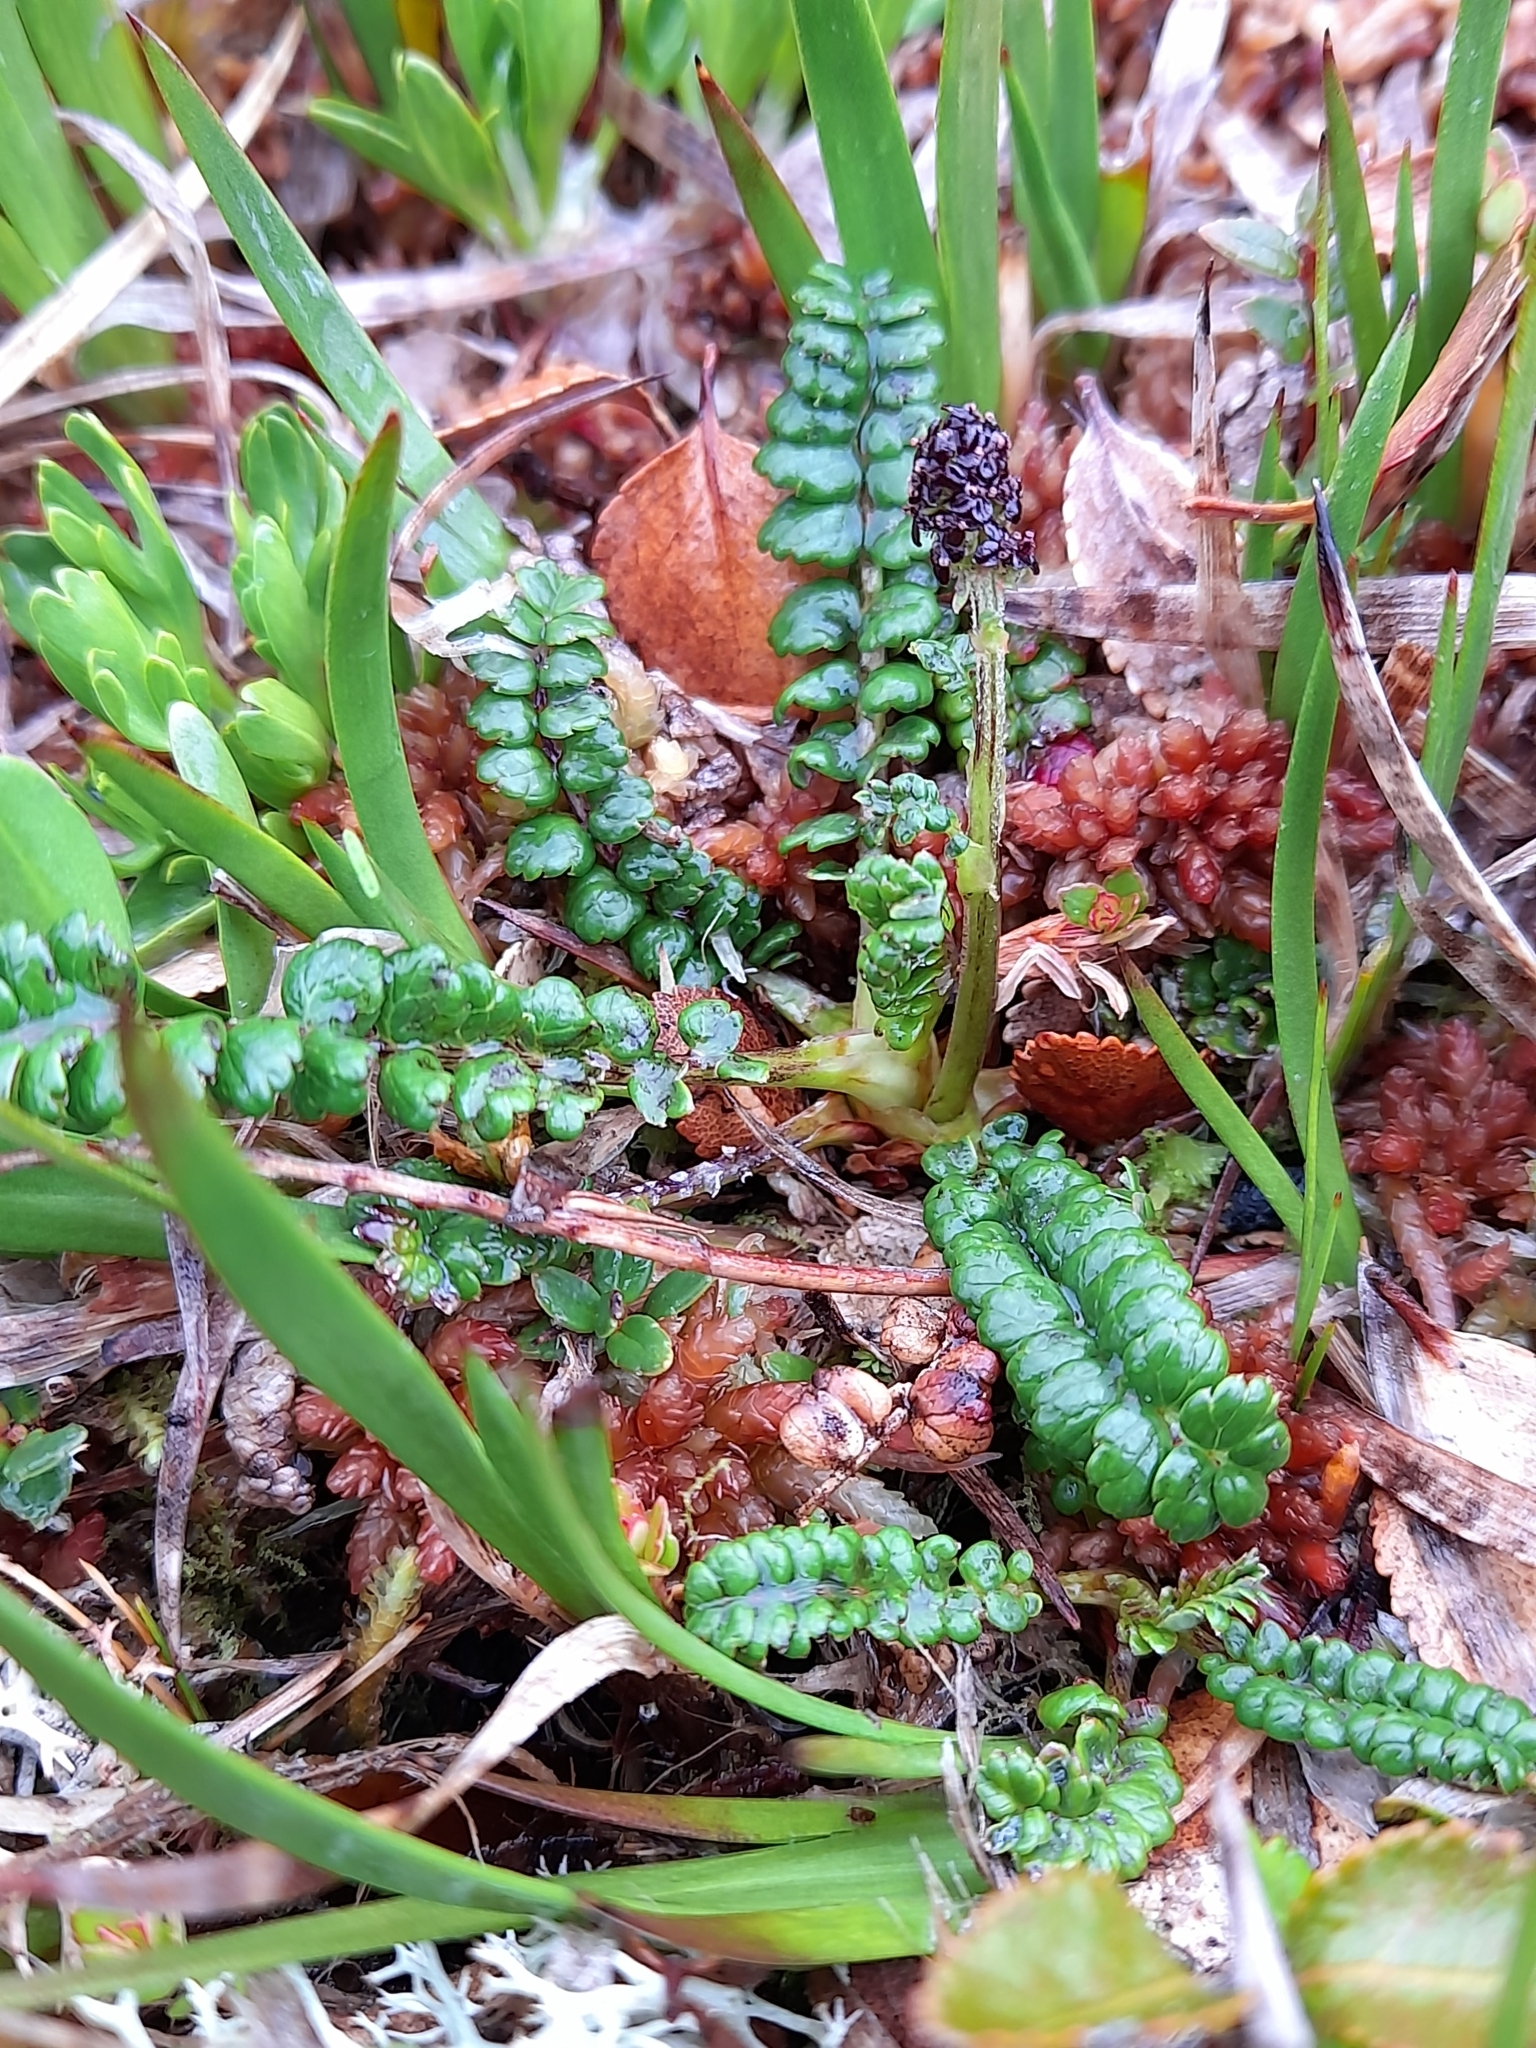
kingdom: Plantae
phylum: Tracheophyta
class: Magnoliopsida
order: Rosales
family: Rosaceae
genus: Acaena
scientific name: Acaena pumila
